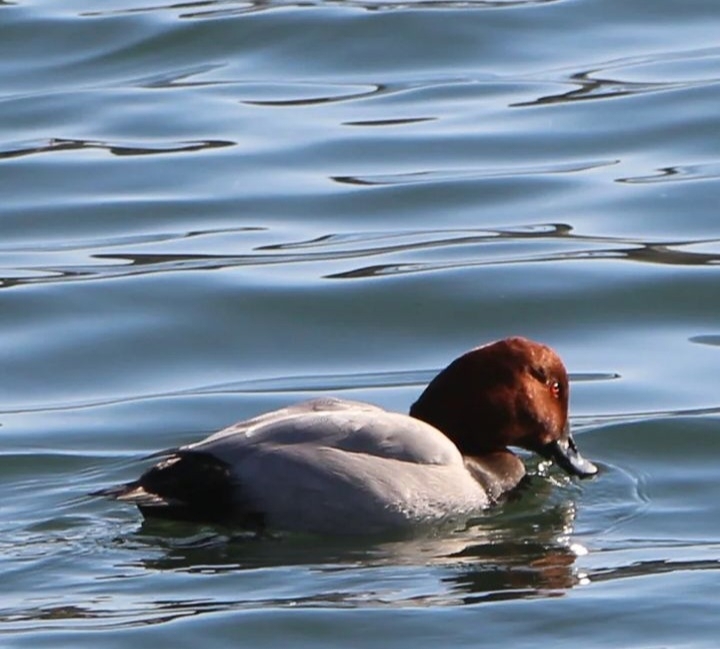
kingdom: Animalia
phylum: Chordata
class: Aves
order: Anseriformes
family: Anatidae
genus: Aythya
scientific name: Aythya ferina
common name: Common pochard
